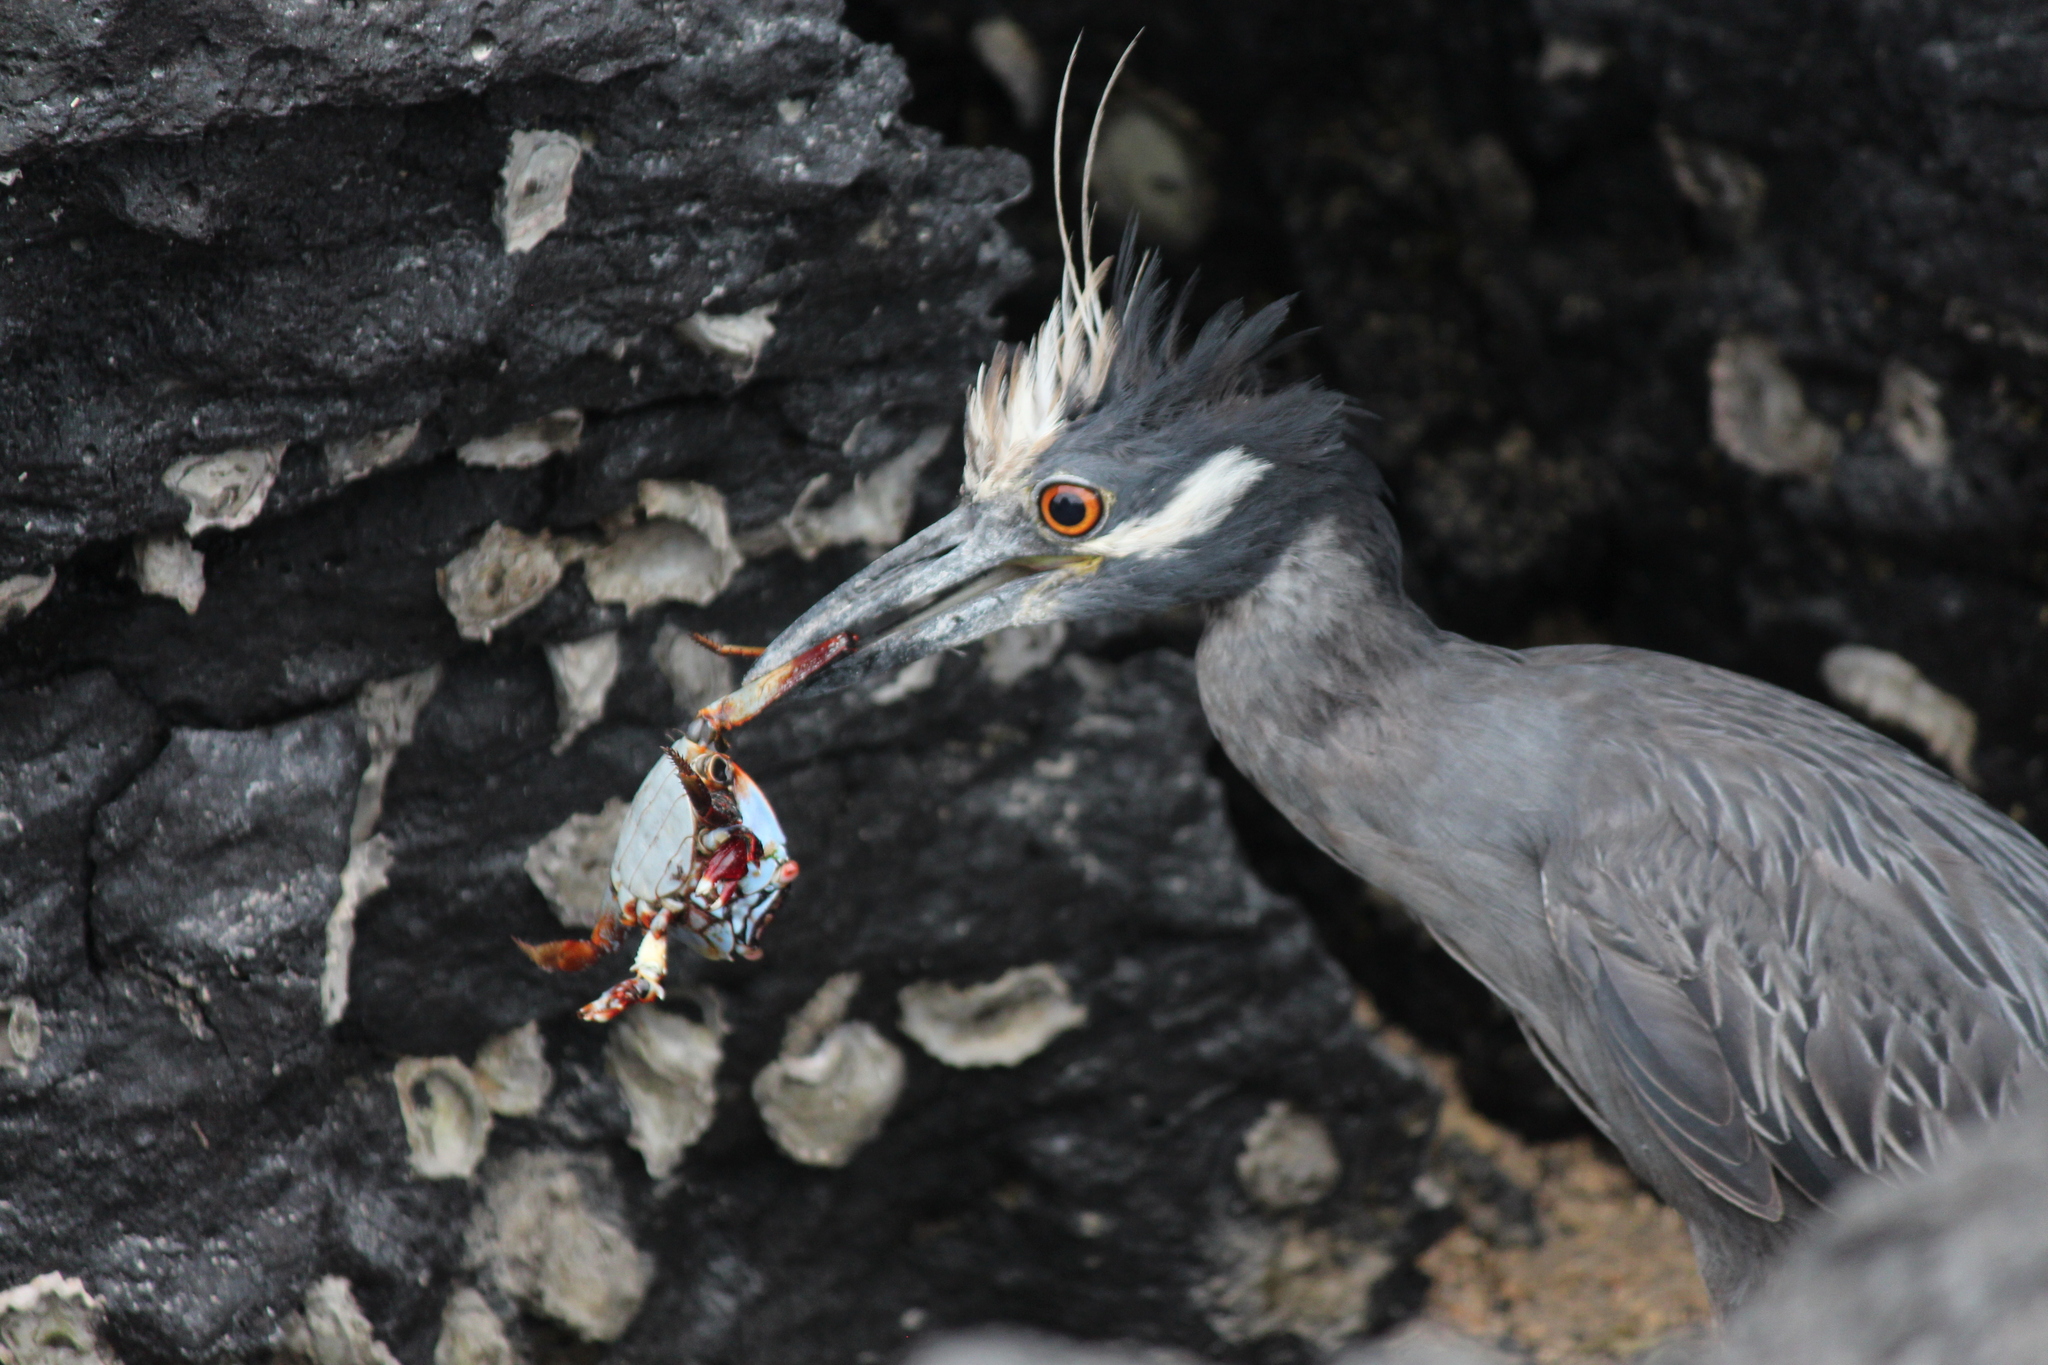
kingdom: Animalia
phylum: Chordata
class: Aves
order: Pelecaniformes
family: Ardeidae
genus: Nyctanassa
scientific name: Nyctanassa violacea
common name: Yellow-crowned night heron
